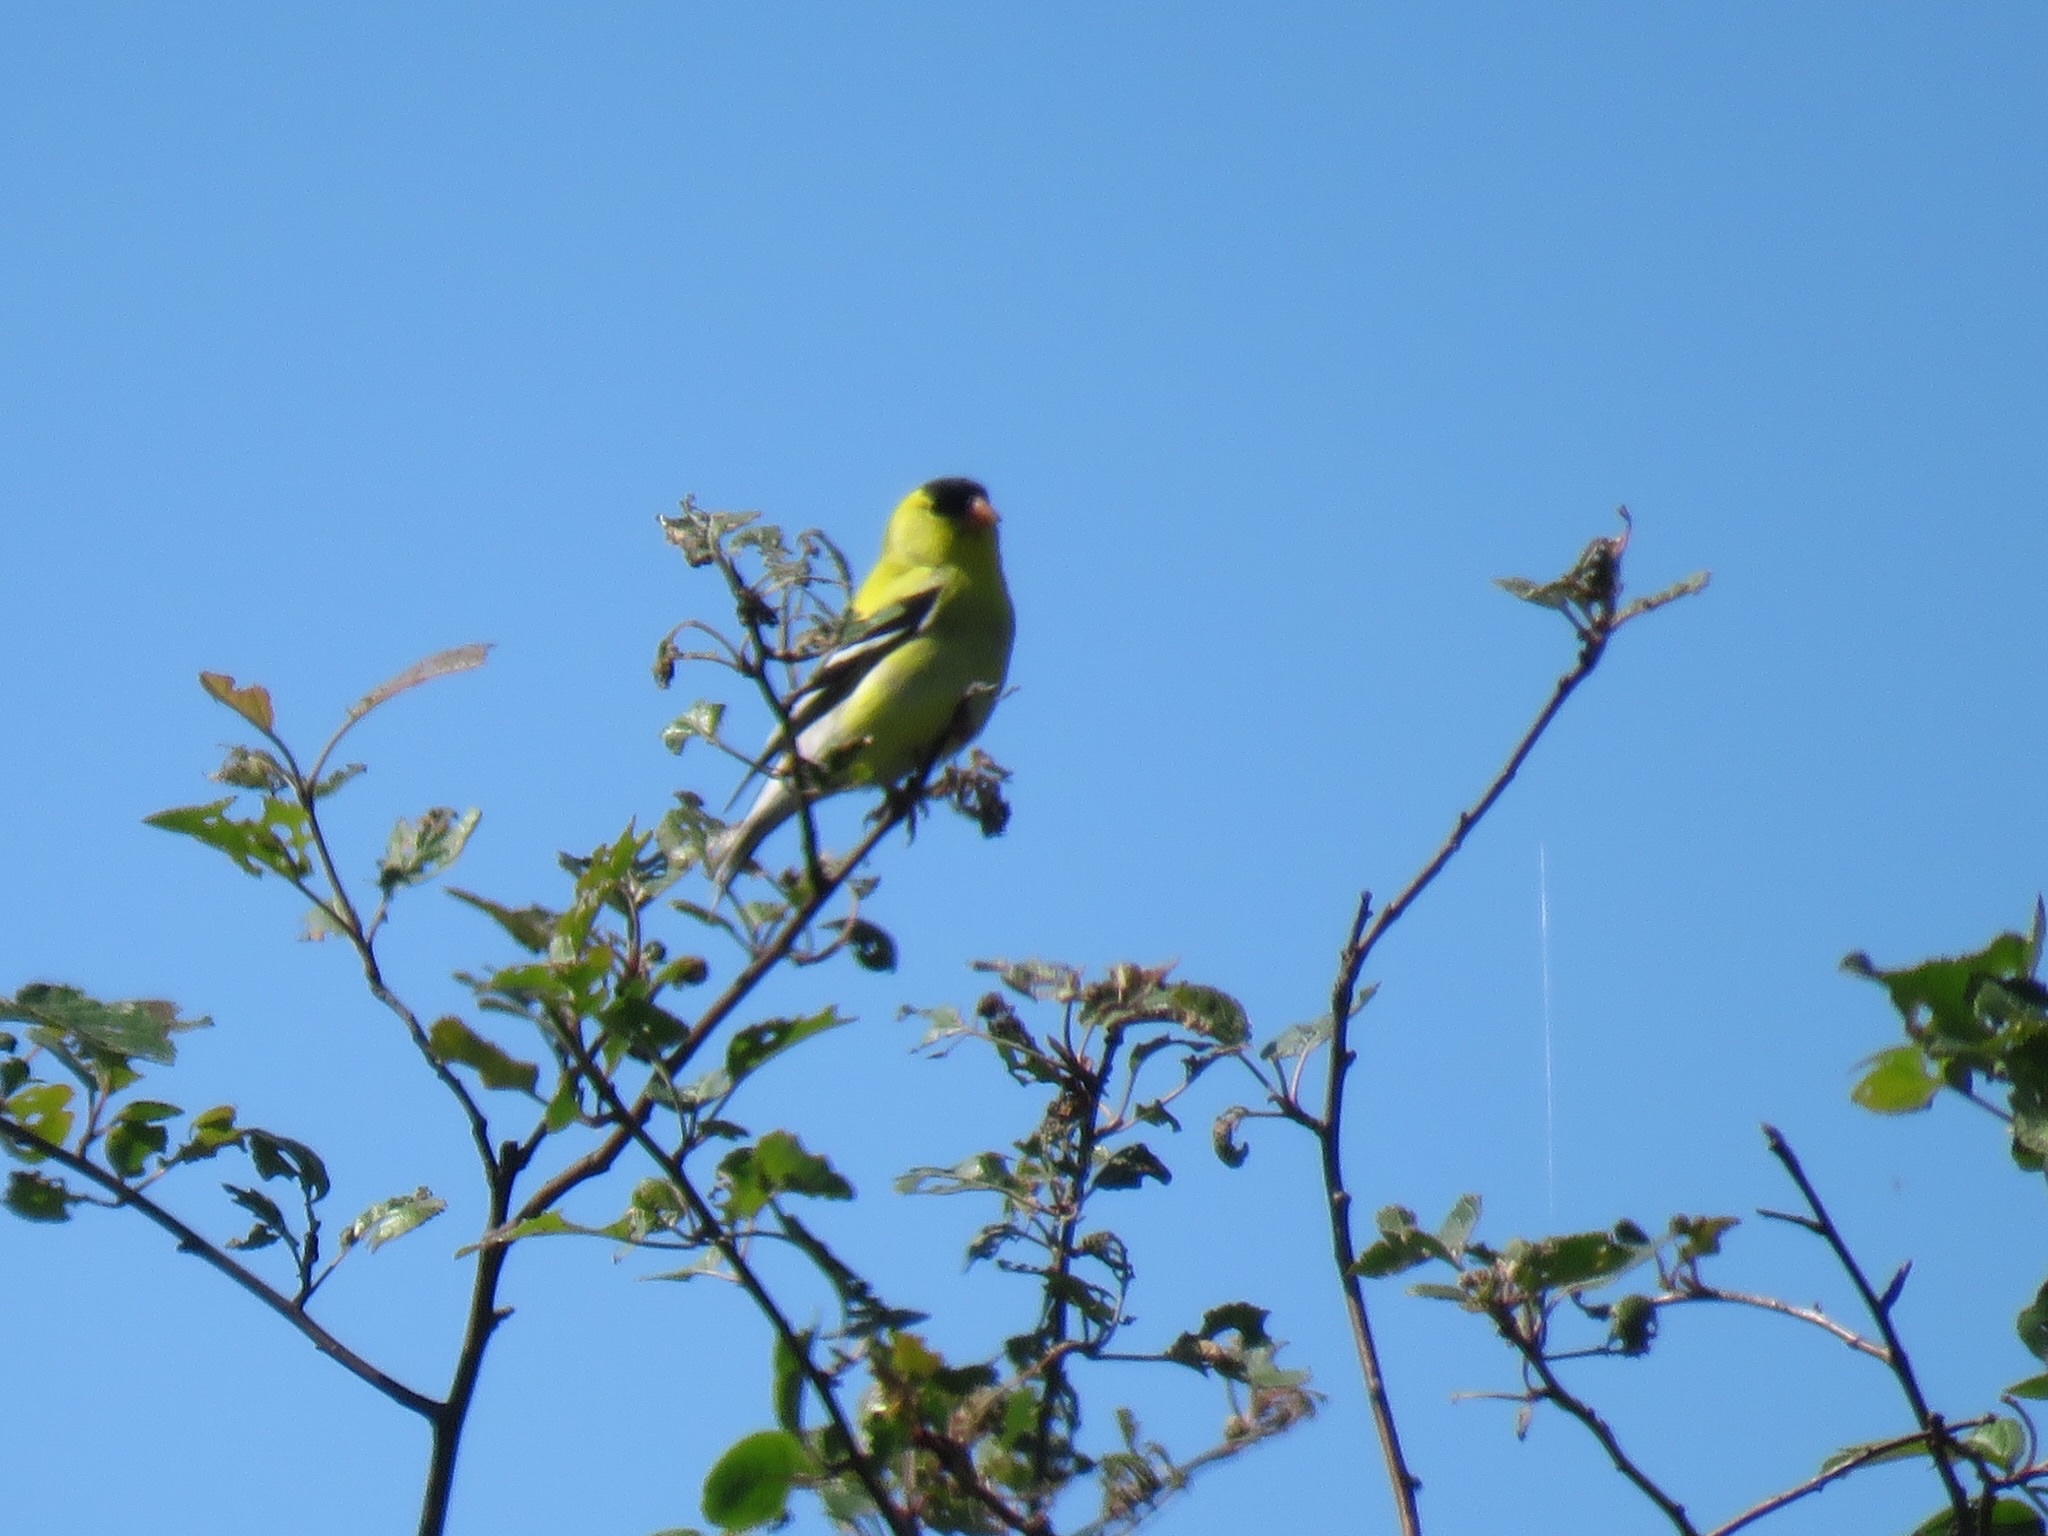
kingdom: Animalia
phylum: Chordata
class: Aves
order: Passeriformes
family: Fringillidae
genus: Spinus
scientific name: Spinus tristis
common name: American goldfinch
